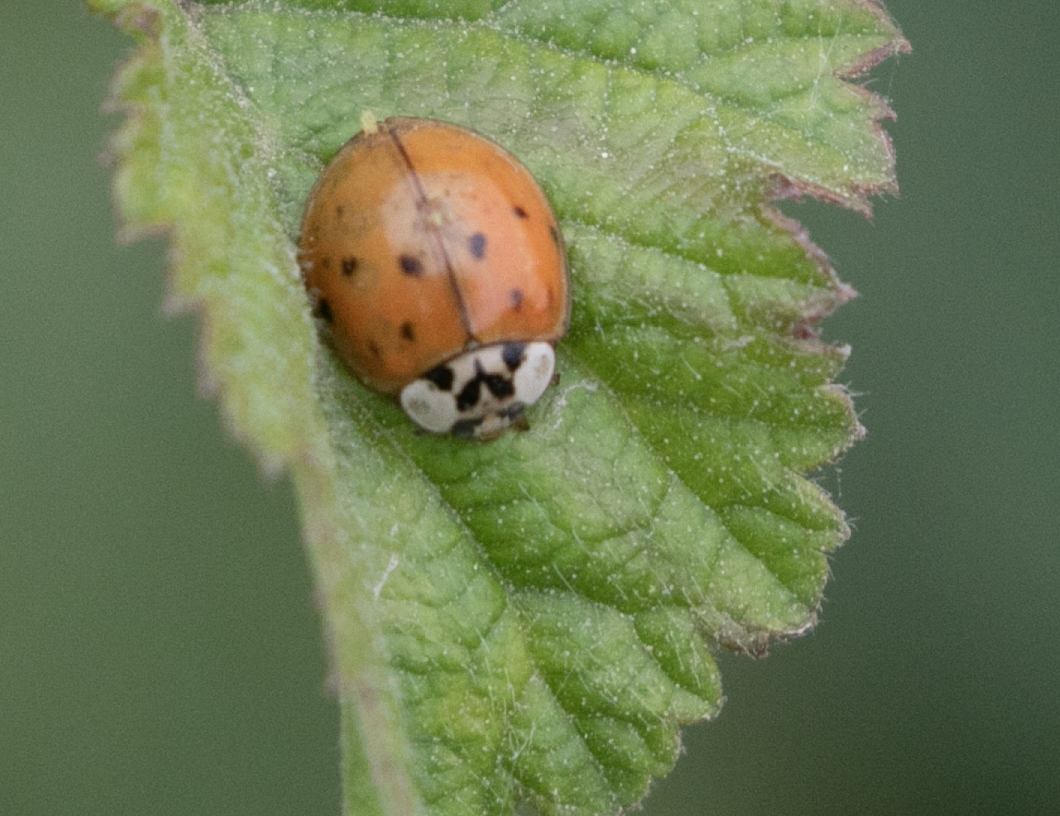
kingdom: Animalia
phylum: Arthropoda
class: Insecta
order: Coleoptera
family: Coccinellidae
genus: Harmonia
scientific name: Harmonia axyridis
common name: Harlequin ladybird
